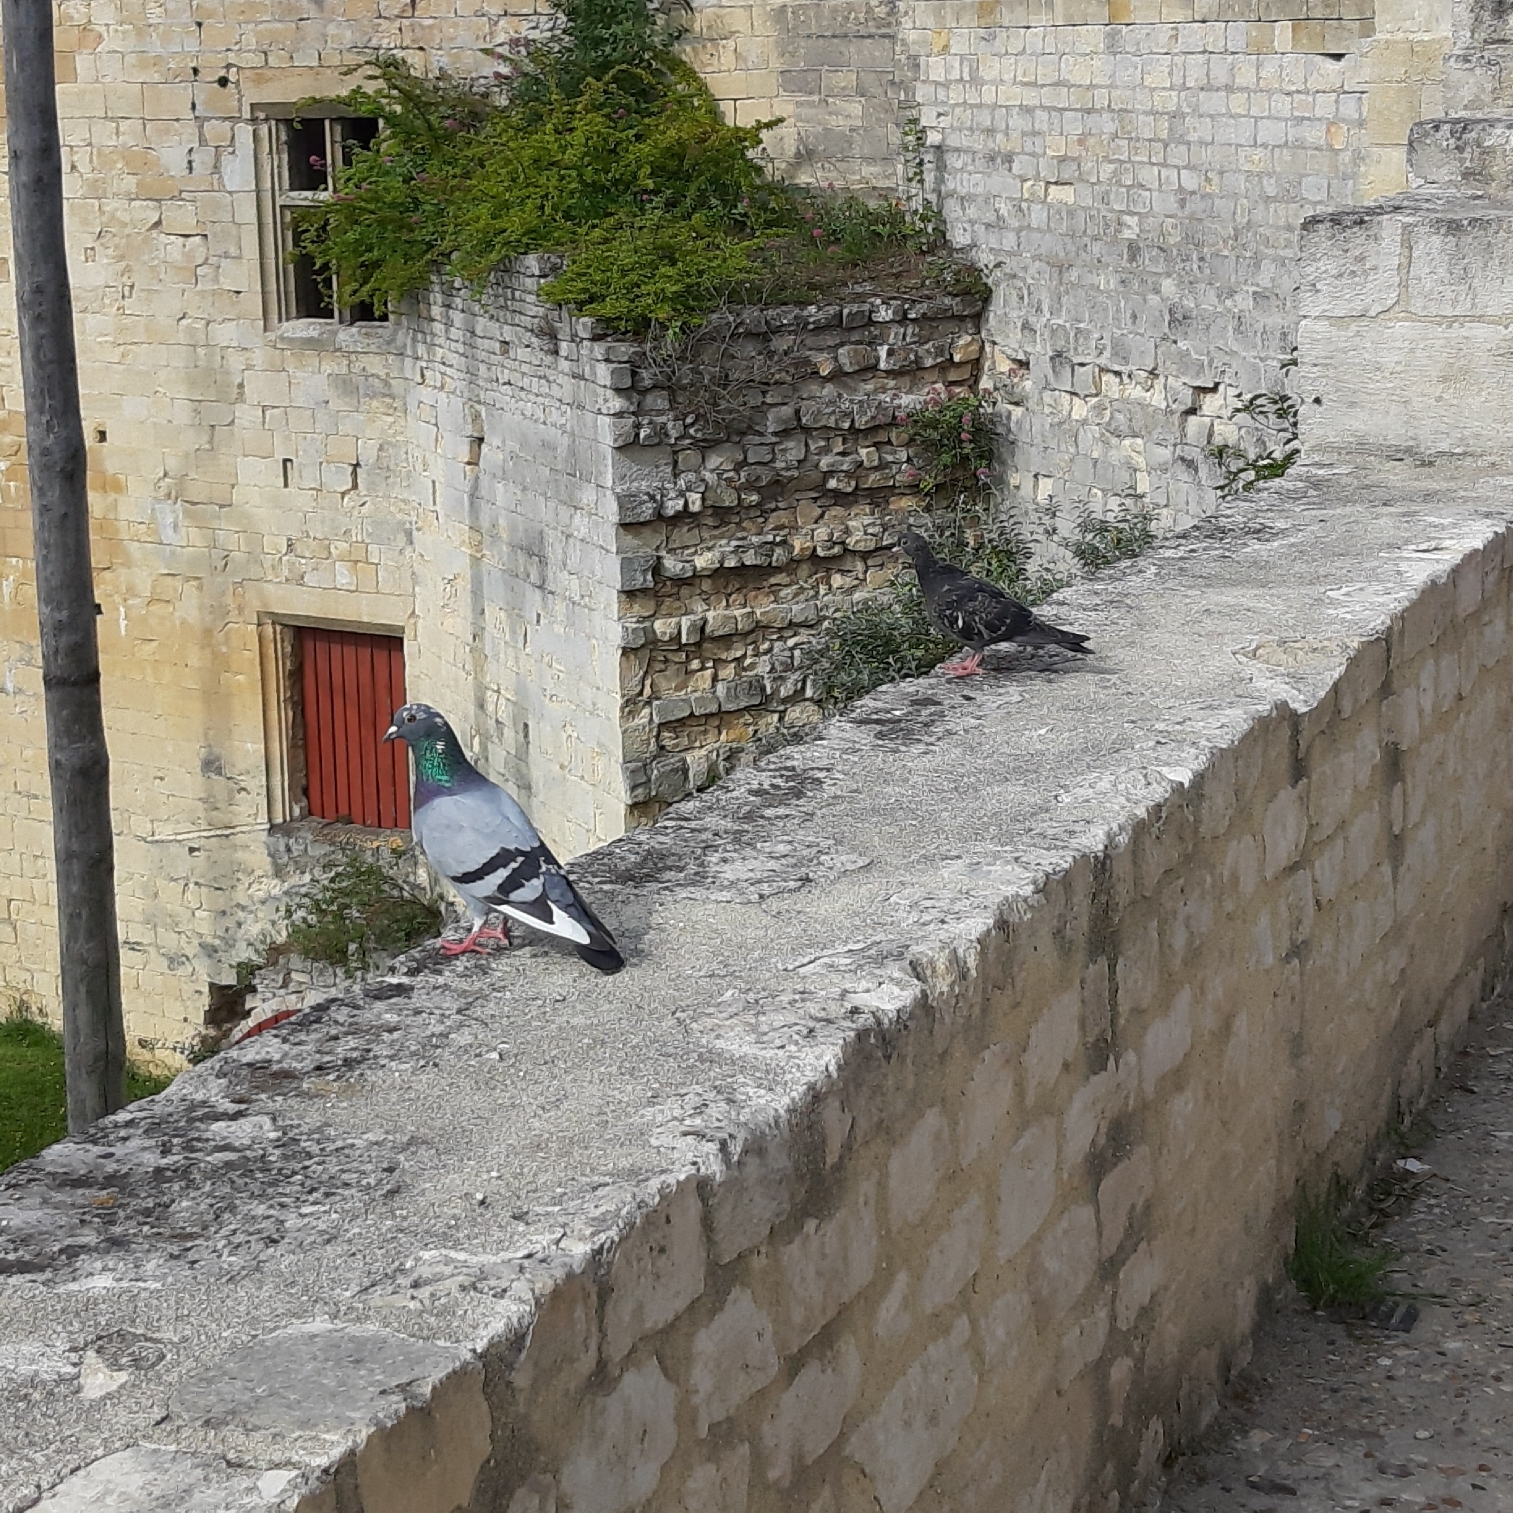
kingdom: Animalia
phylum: Chordata
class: Aves
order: Columbiformes
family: Columbidae
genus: Columba
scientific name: Columba livia
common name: Rock pigeon
